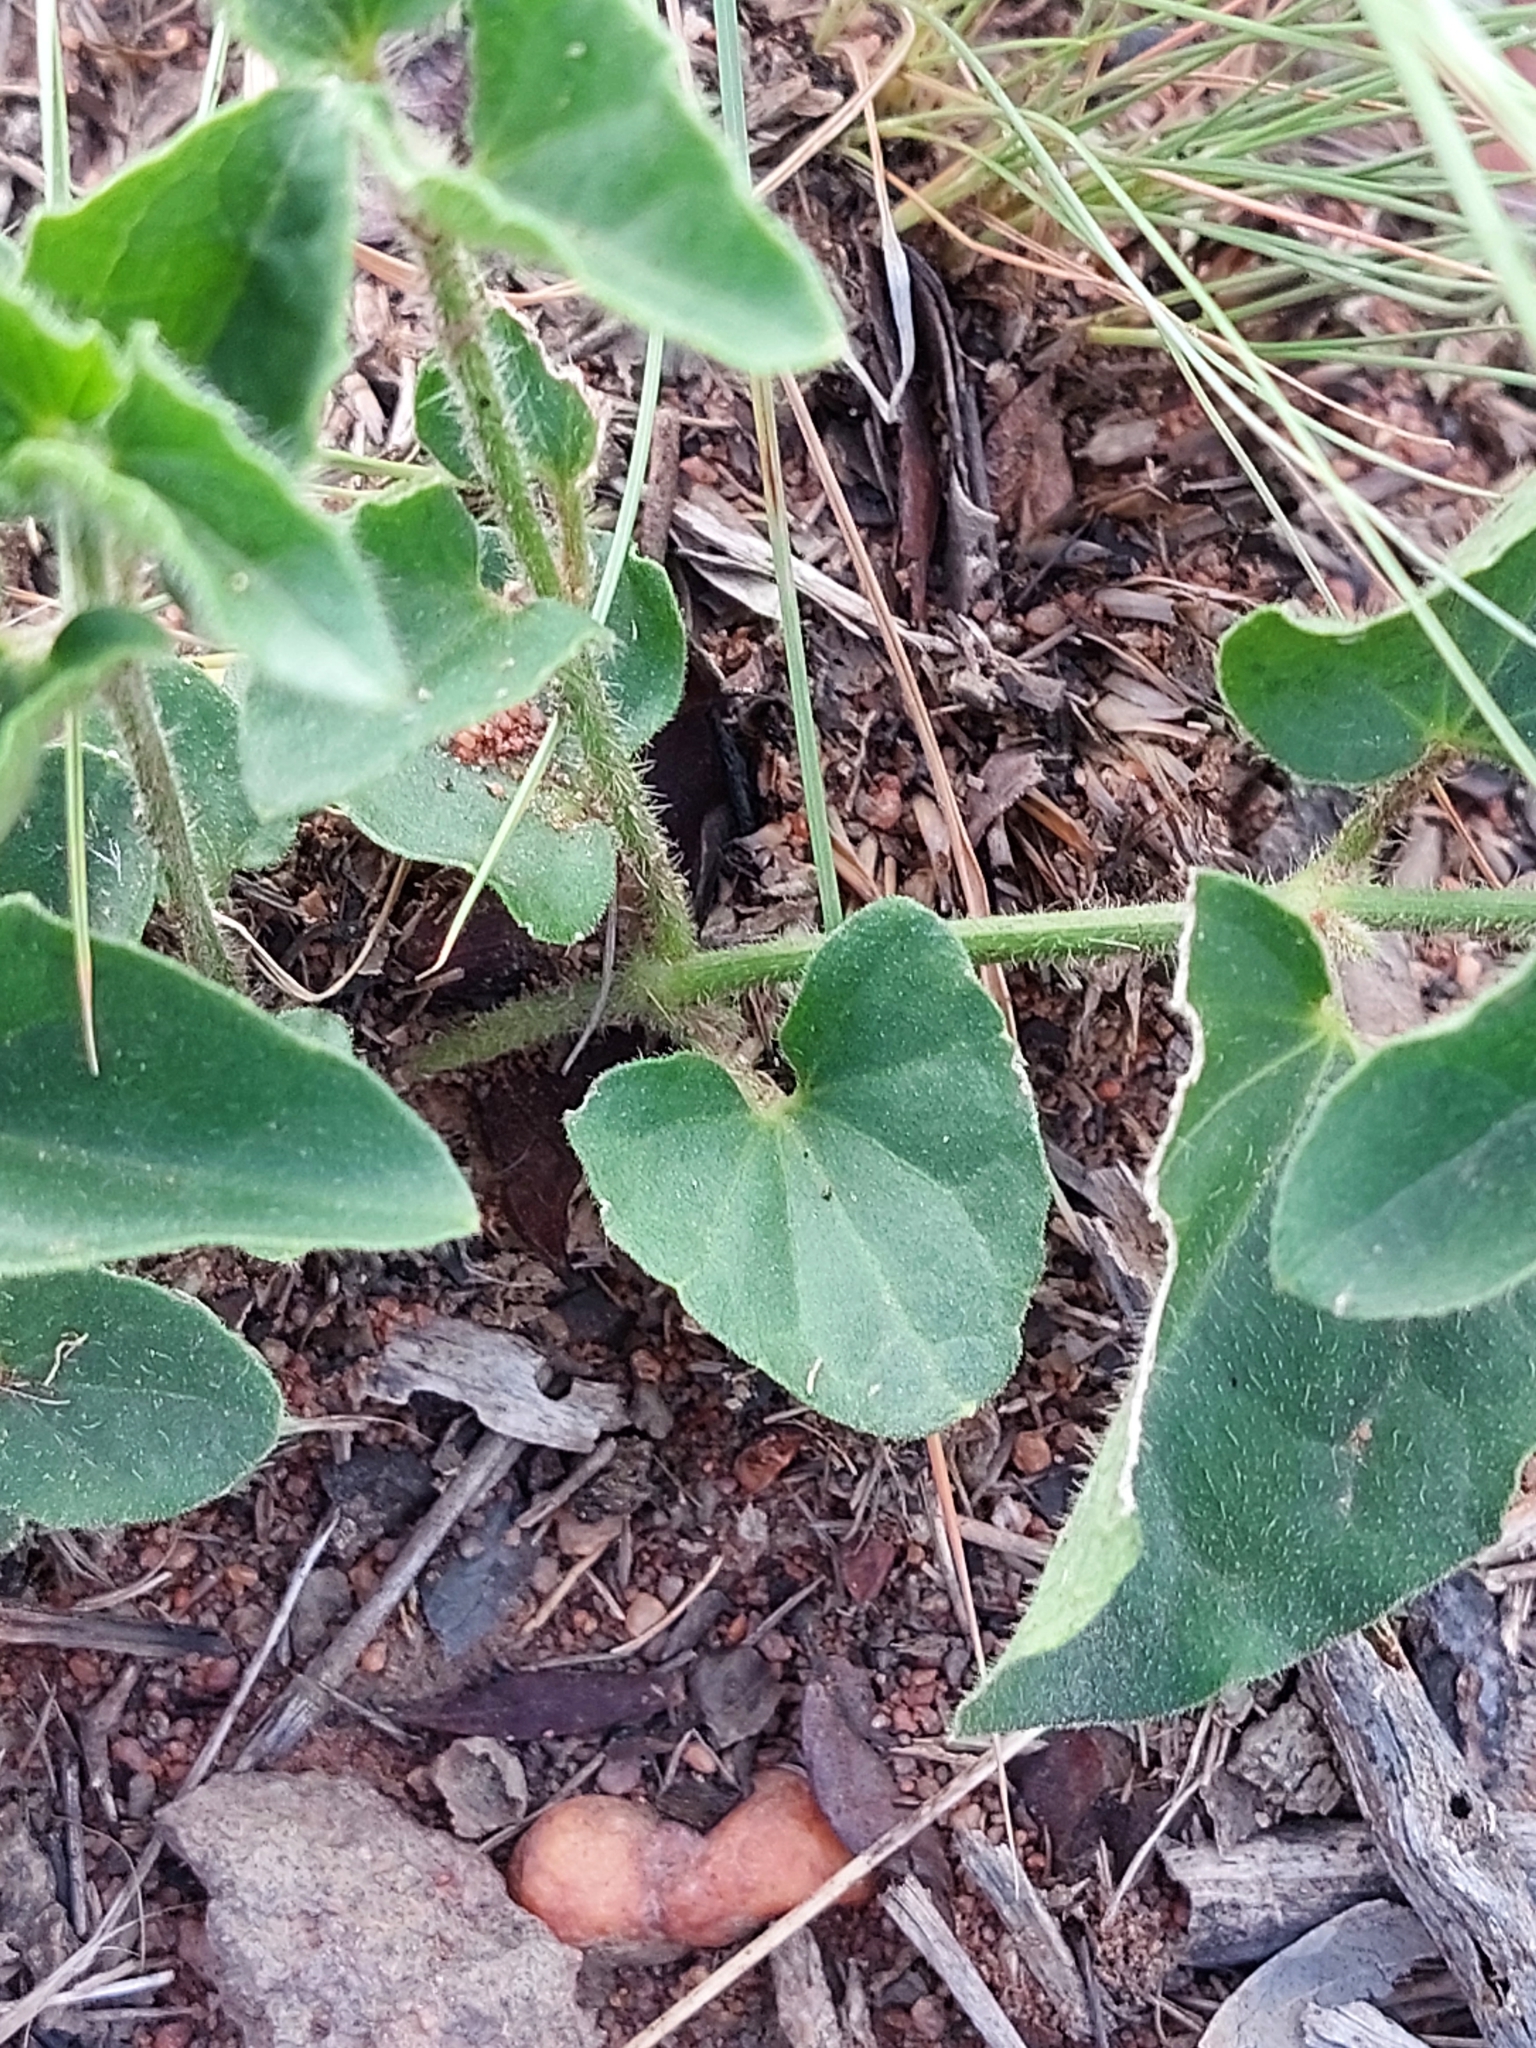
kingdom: Plantae
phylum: Tracheophyta
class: Magnoliopsida
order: Lamiales
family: Acanthaceae
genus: Thunbergia
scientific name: Thunbergia neglecta
